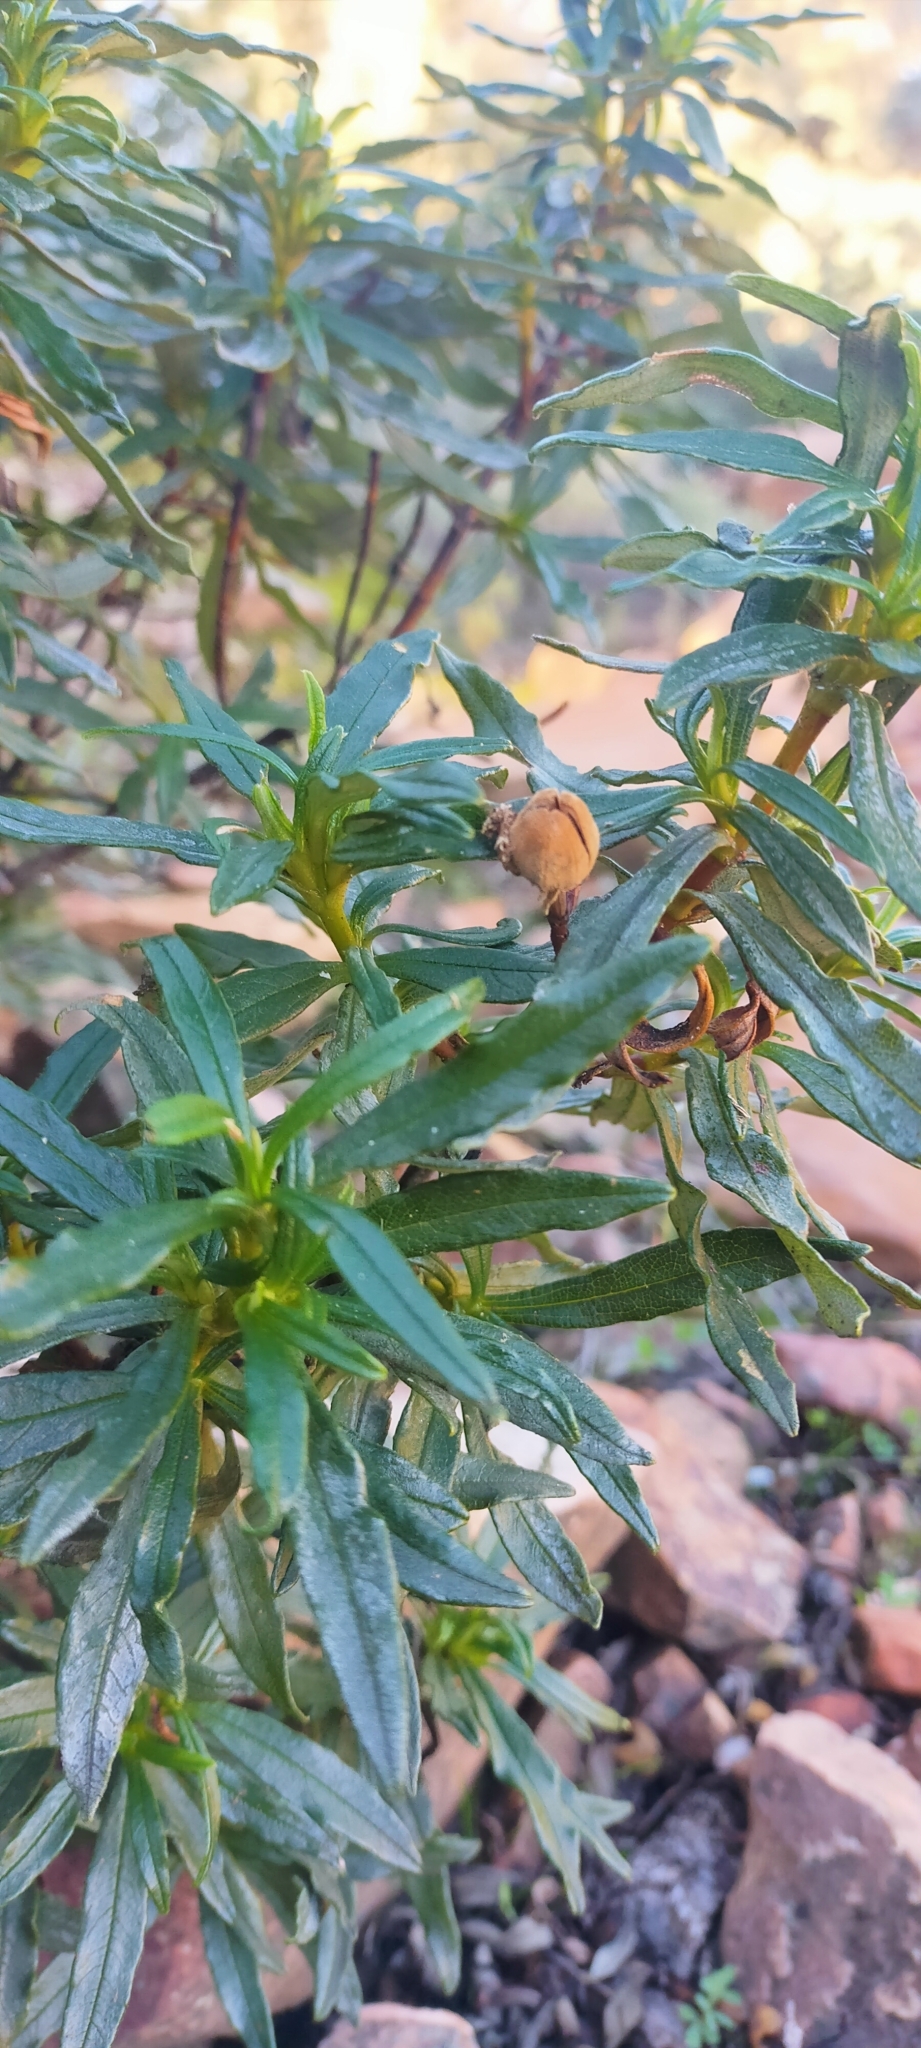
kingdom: Plantae
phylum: Tracheophyta
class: Magnoliopsida
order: Malvales
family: Cistaceae
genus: Cistus
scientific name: Cistus ladanifer
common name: Common gum cistus
